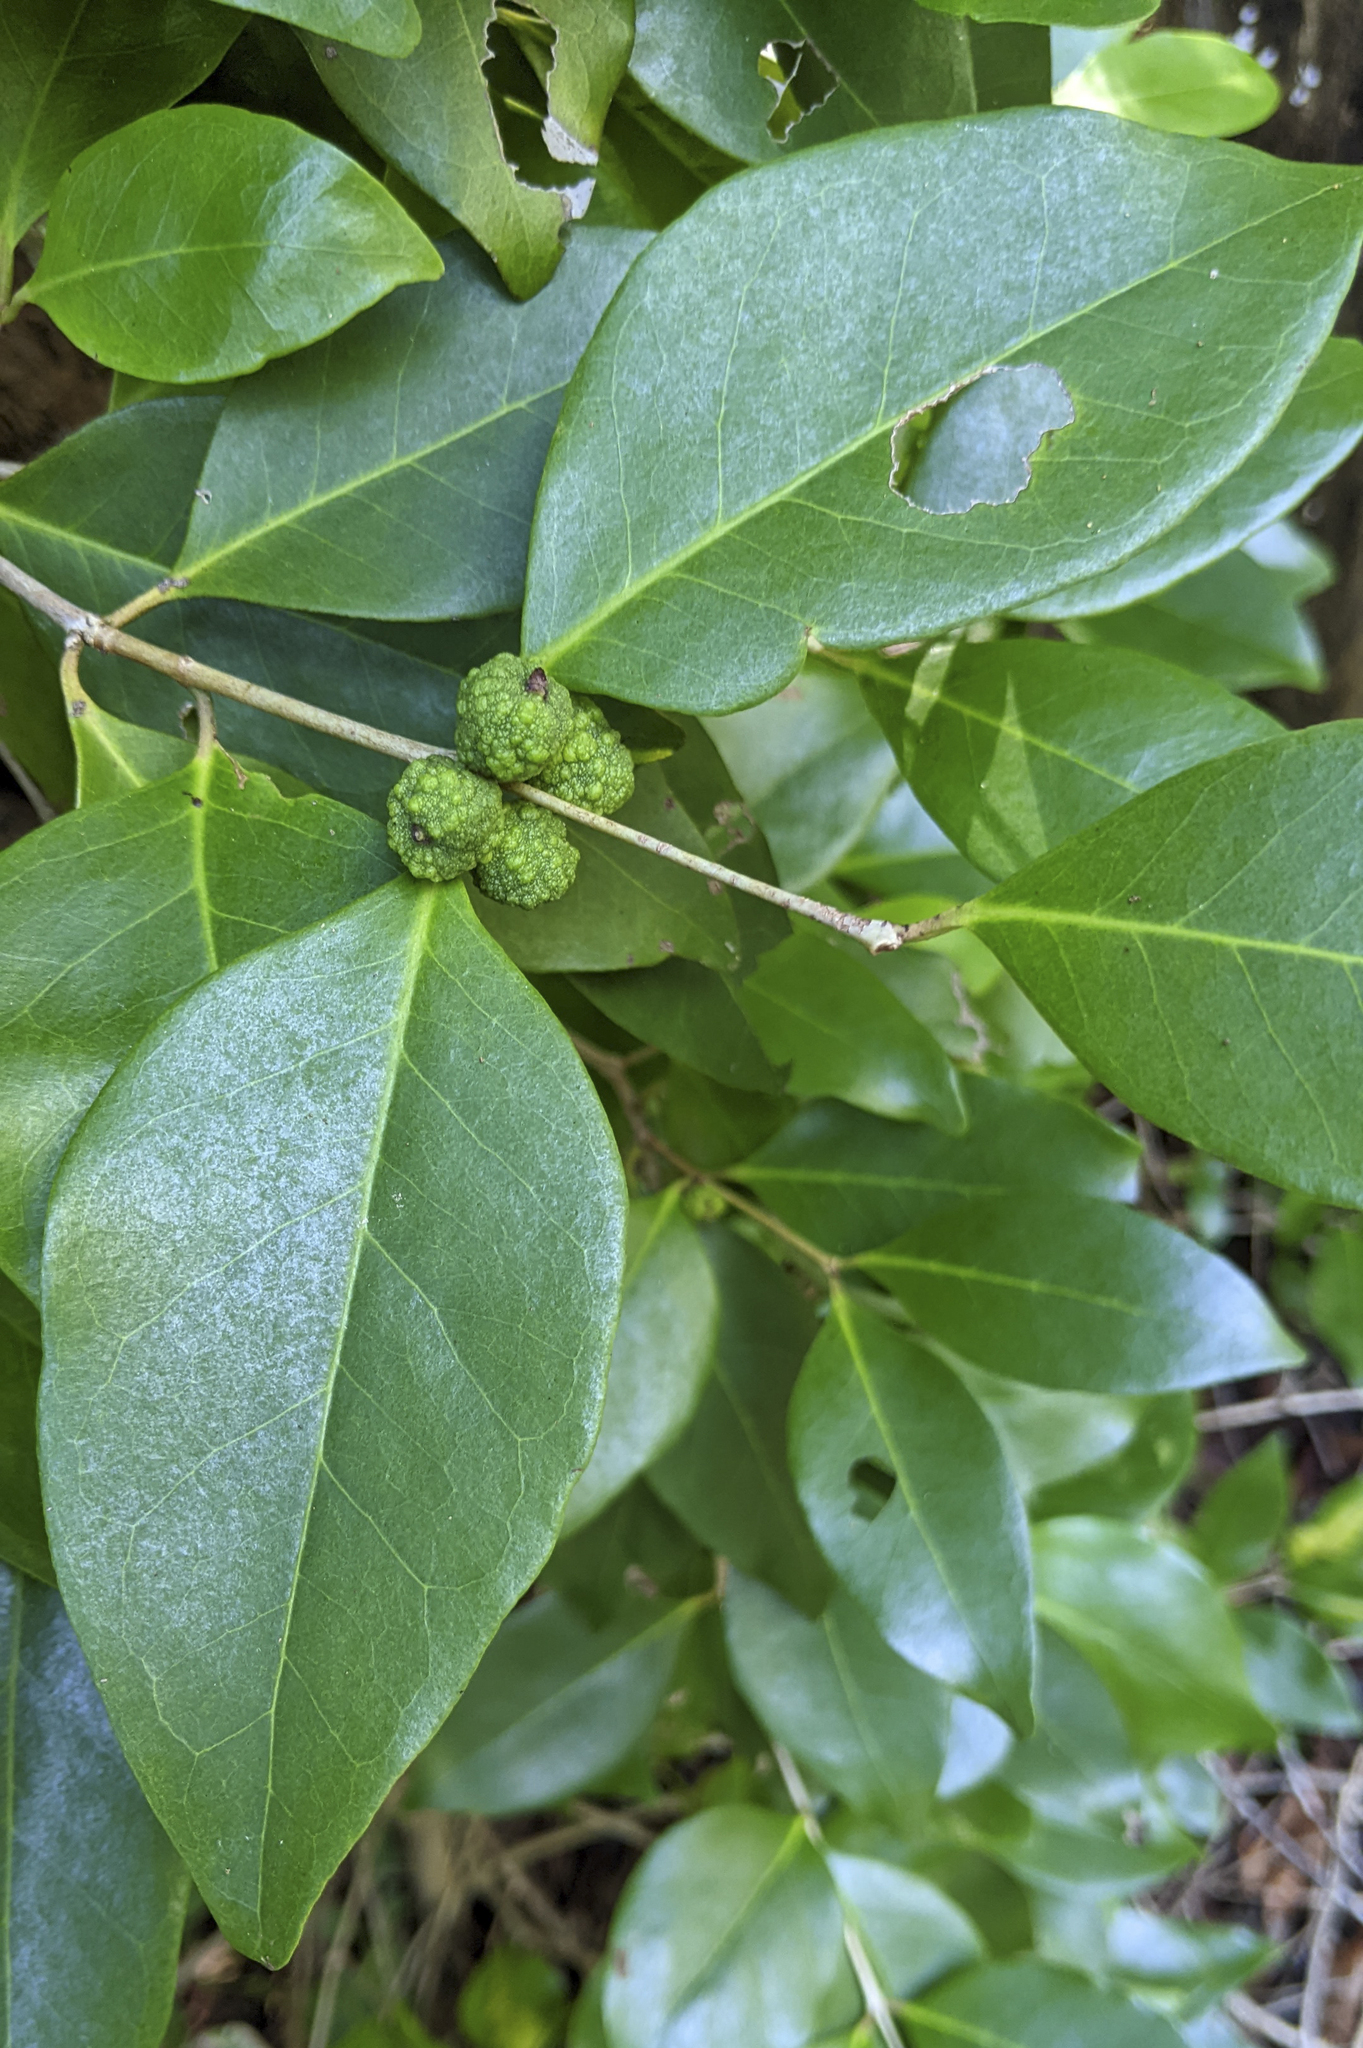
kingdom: Plantae
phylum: Tracheophyta
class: Magnoliopsida
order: Myrtales
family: Myrtaceae
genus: Eugenia
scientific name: Eugenia axillaris
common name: Choaky berry
